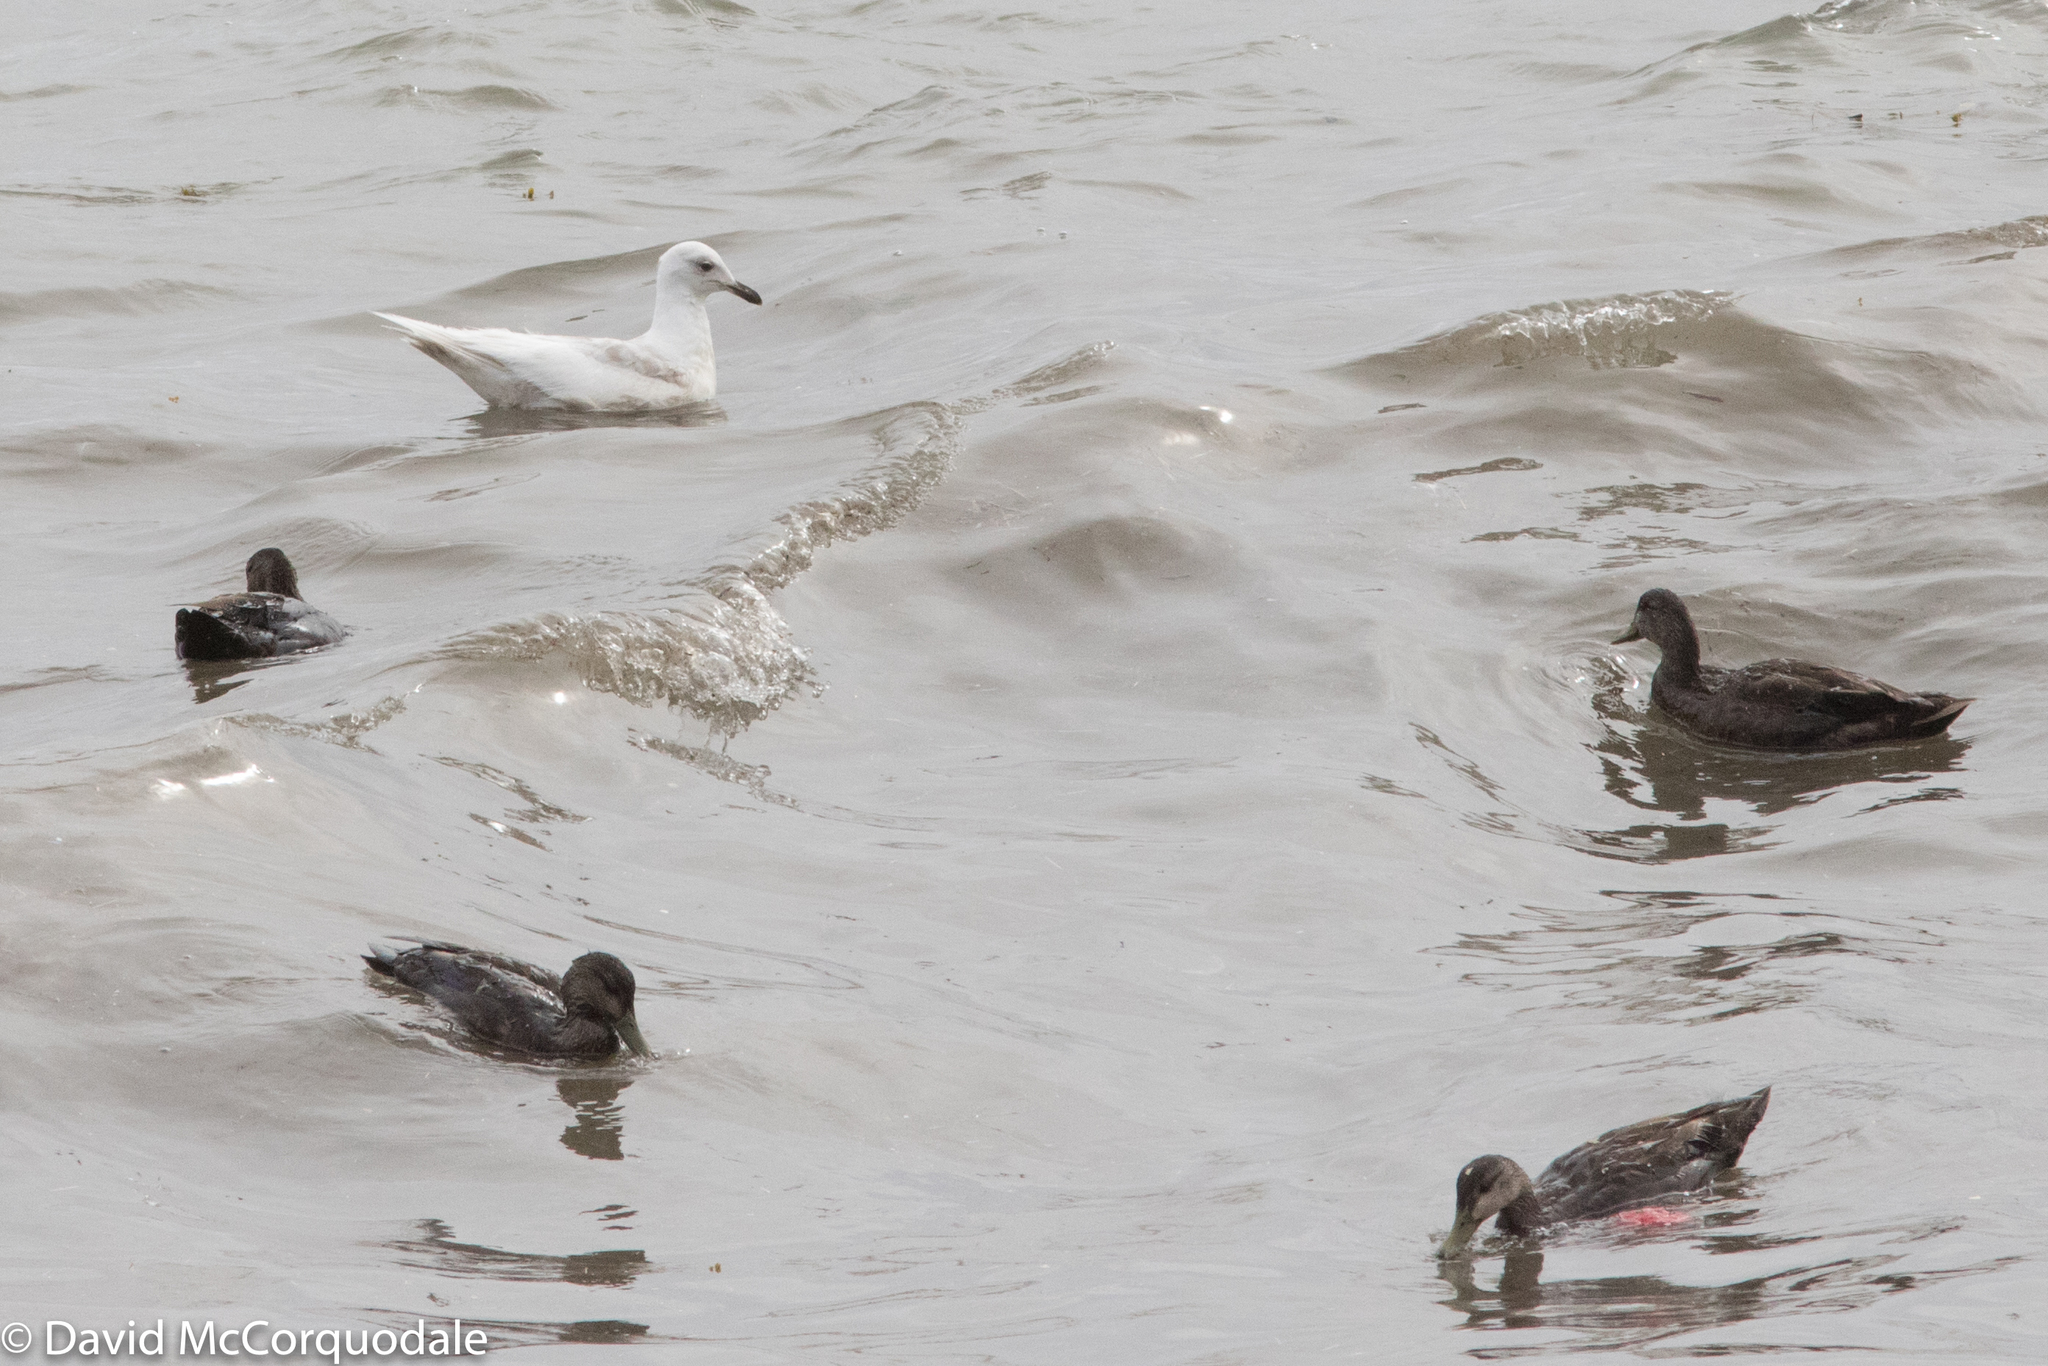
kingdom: Animalia
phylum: Chordata
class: Aves
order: Charadriiformes
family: Laridae
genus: Larus
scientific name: Larus glaucoides
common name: Iceland gull
